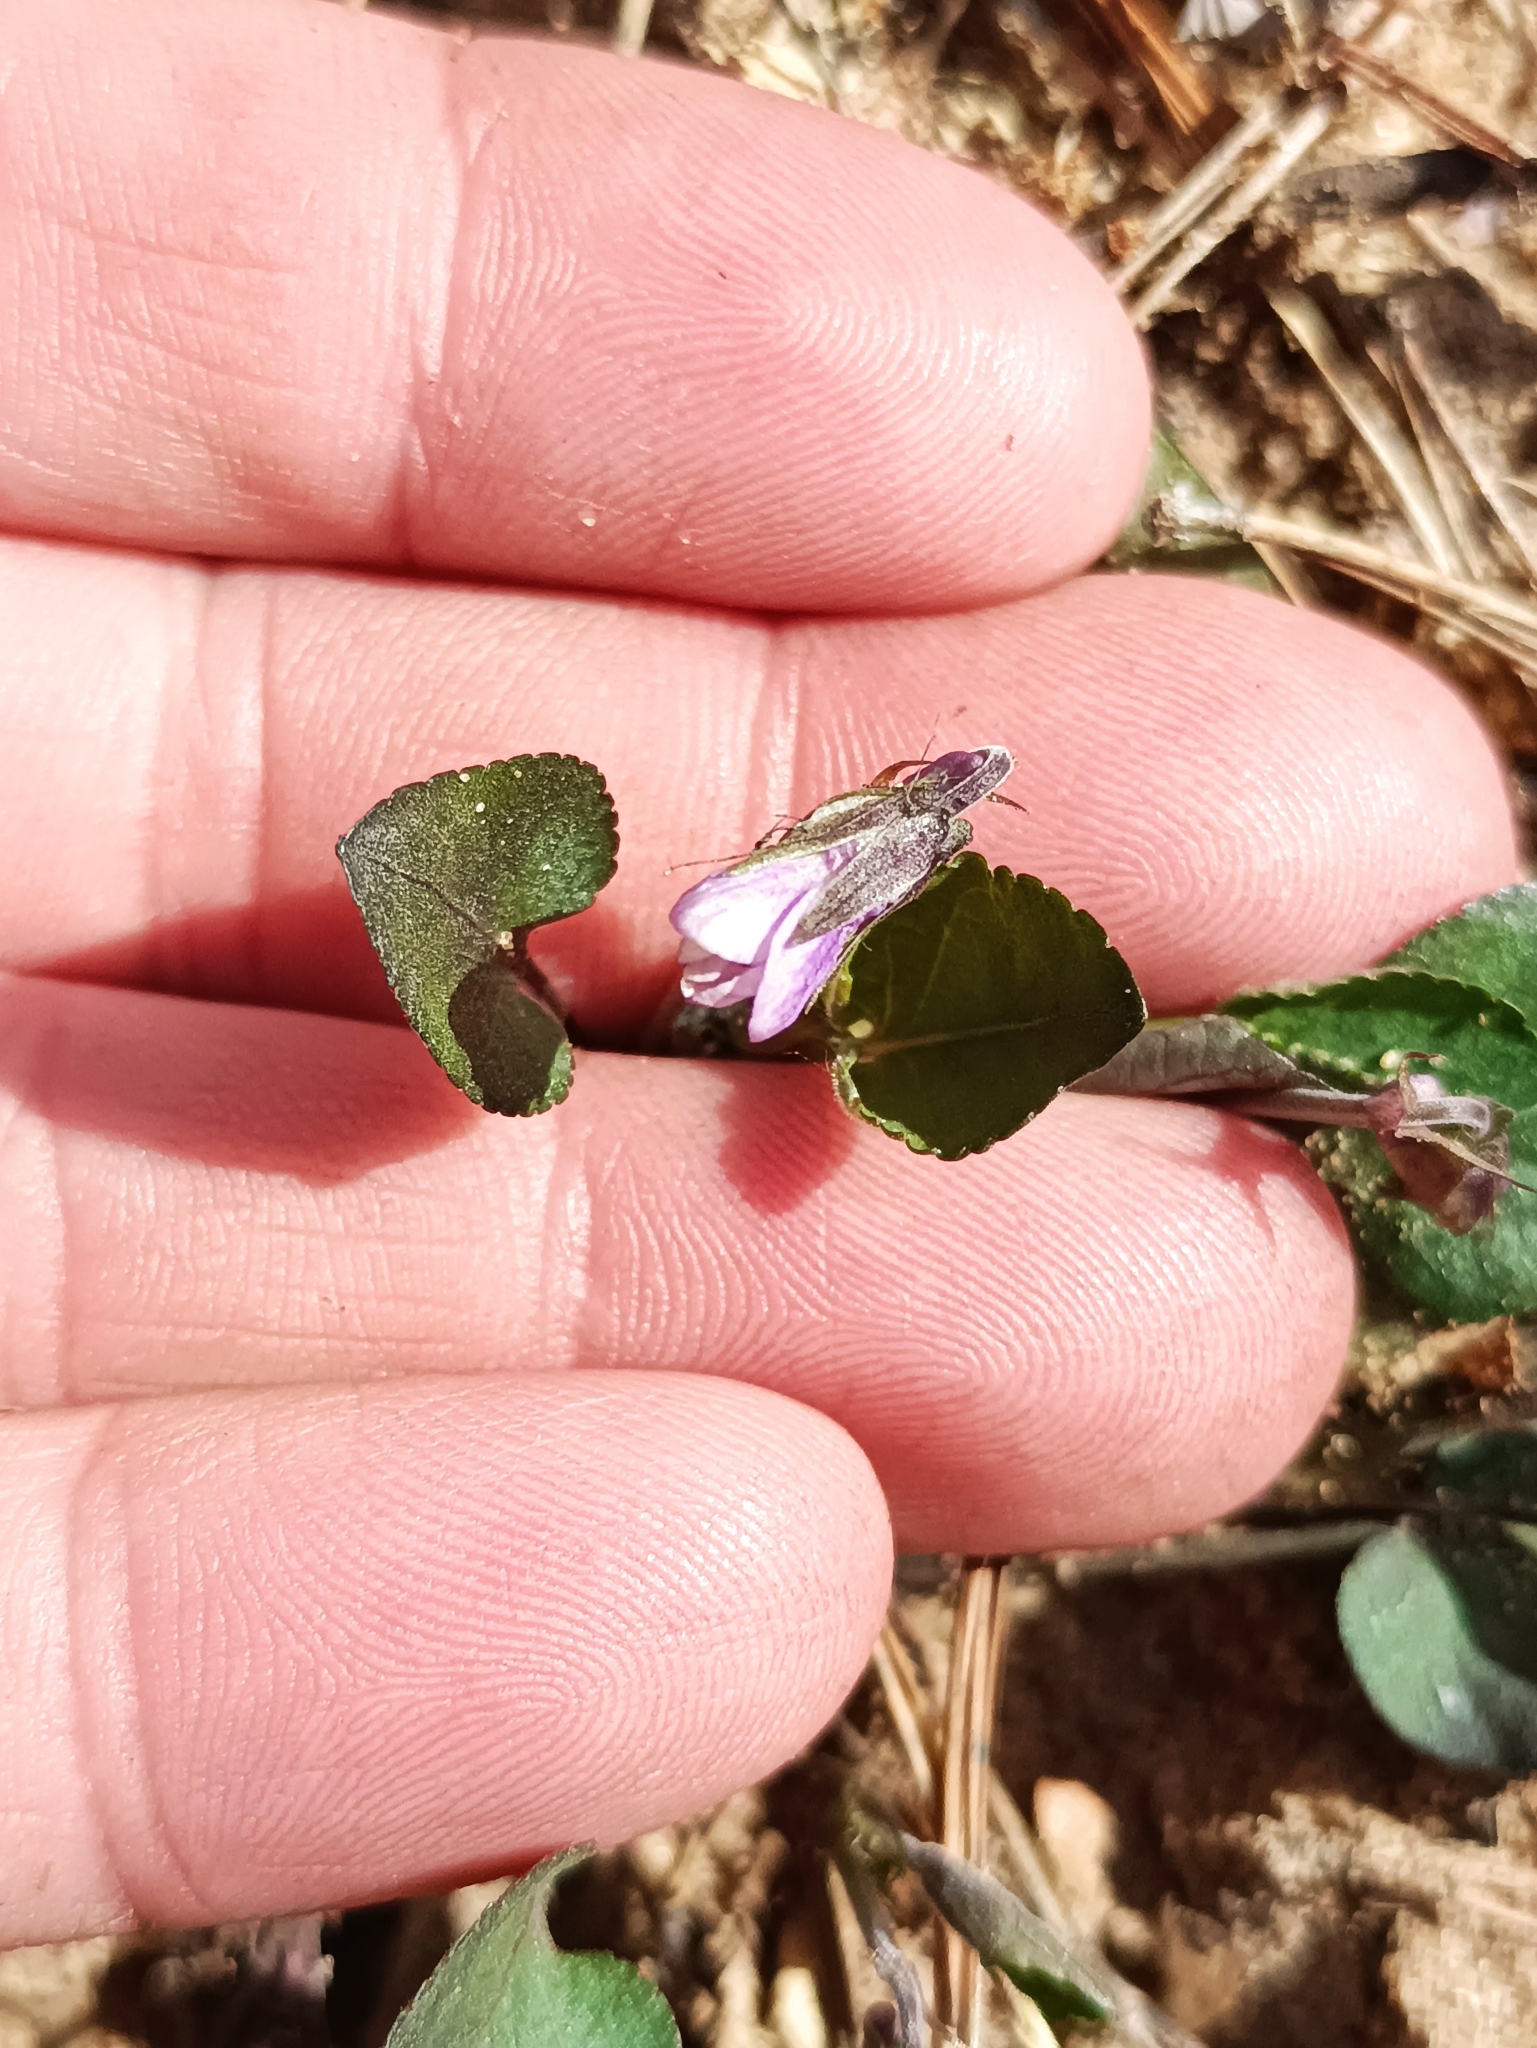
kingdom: Plantae
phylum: Tracheophyta
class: Magnoliopsida
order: Malpighiales
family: Violaceae
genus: Viola
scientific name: Viola rupestris
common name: Teesdale violet
